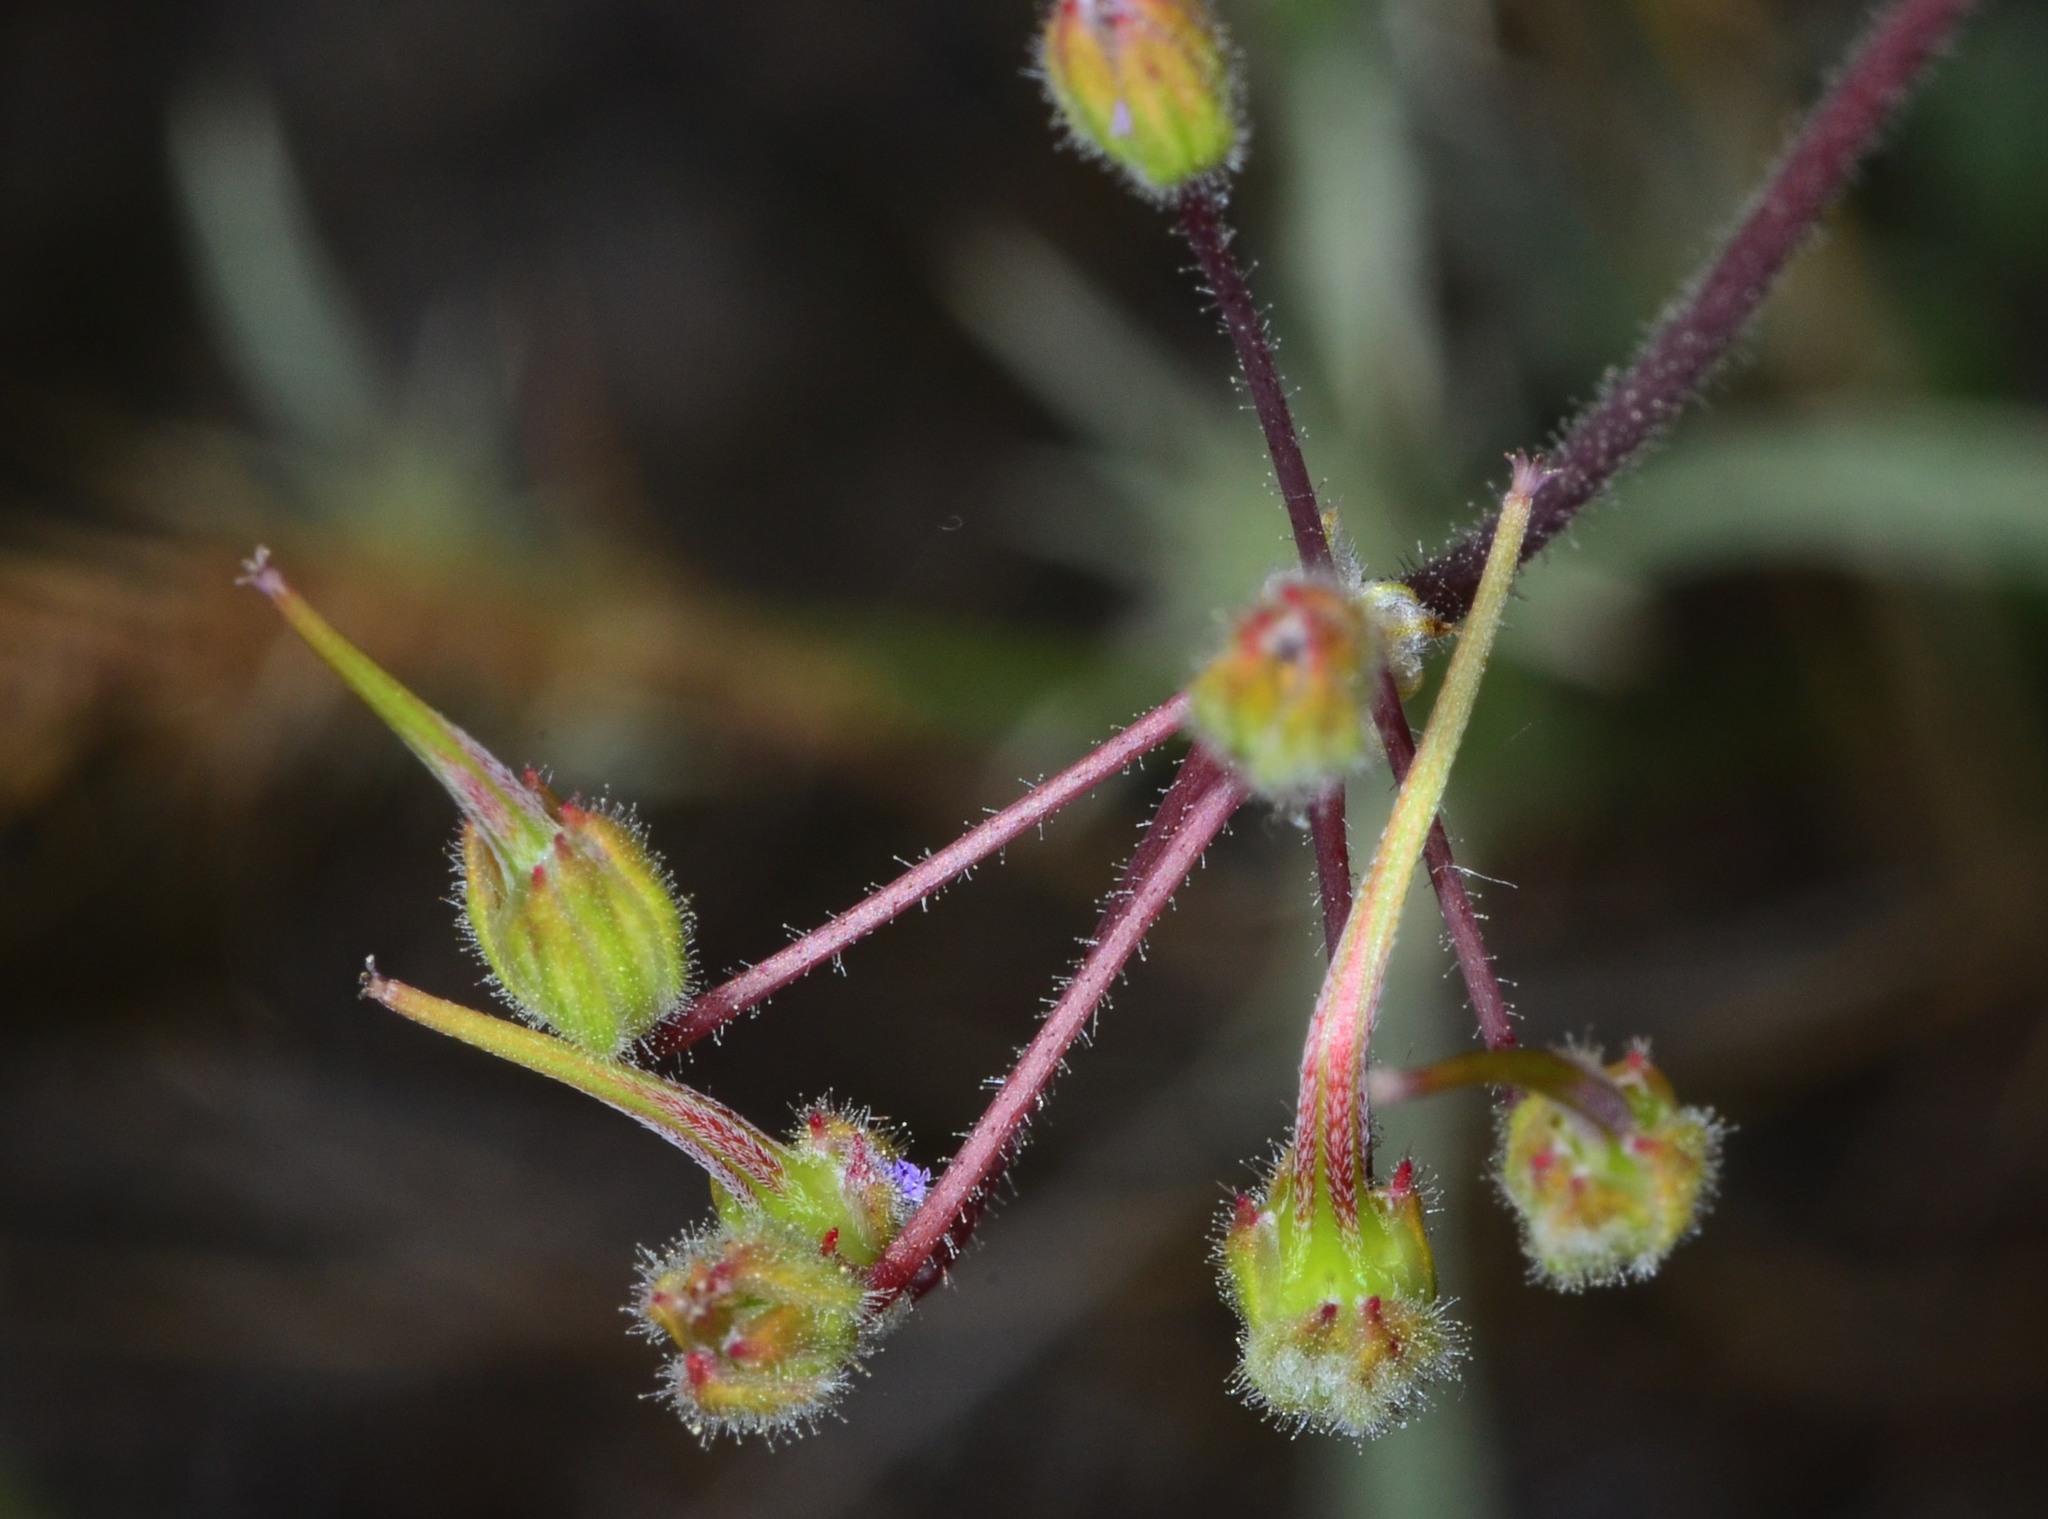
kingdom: Plantae
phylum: Tracheophyta
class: Magnoliopsida
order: Geraniales
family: Geraniaceae
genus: Erodium
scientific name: Erodium cicutarium
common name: Common stork's-bill
